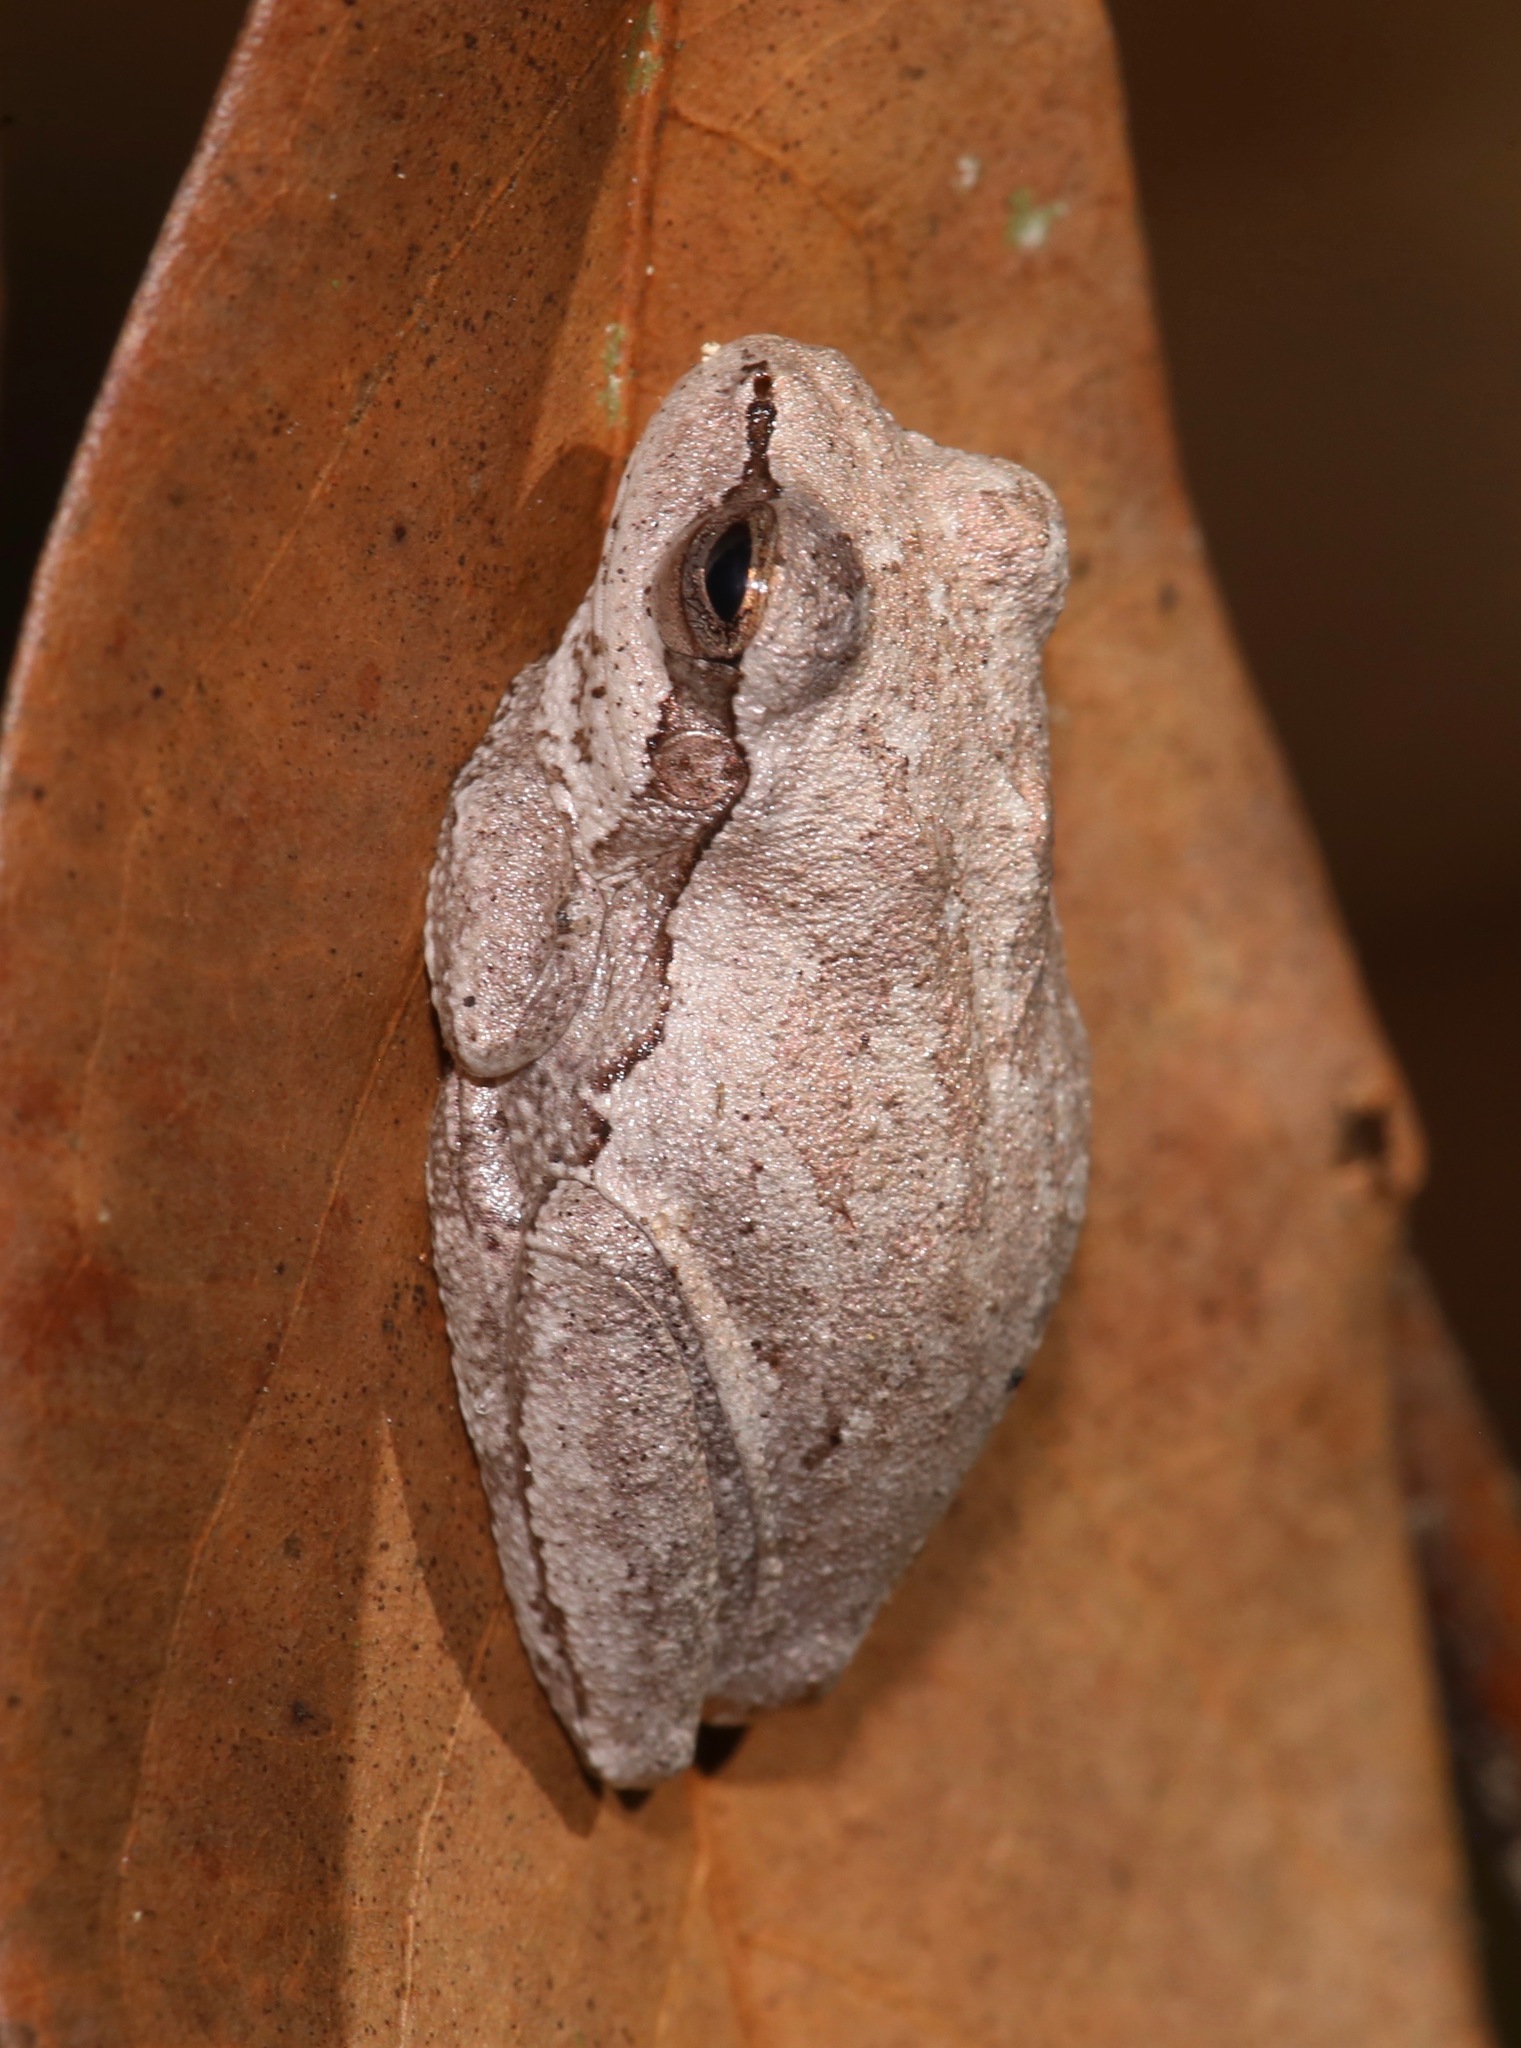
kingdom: Animalia
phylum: Chordata
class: Amphibia
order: Anura
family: Hylidae
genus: Hyla
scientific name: Hyla femoralis
